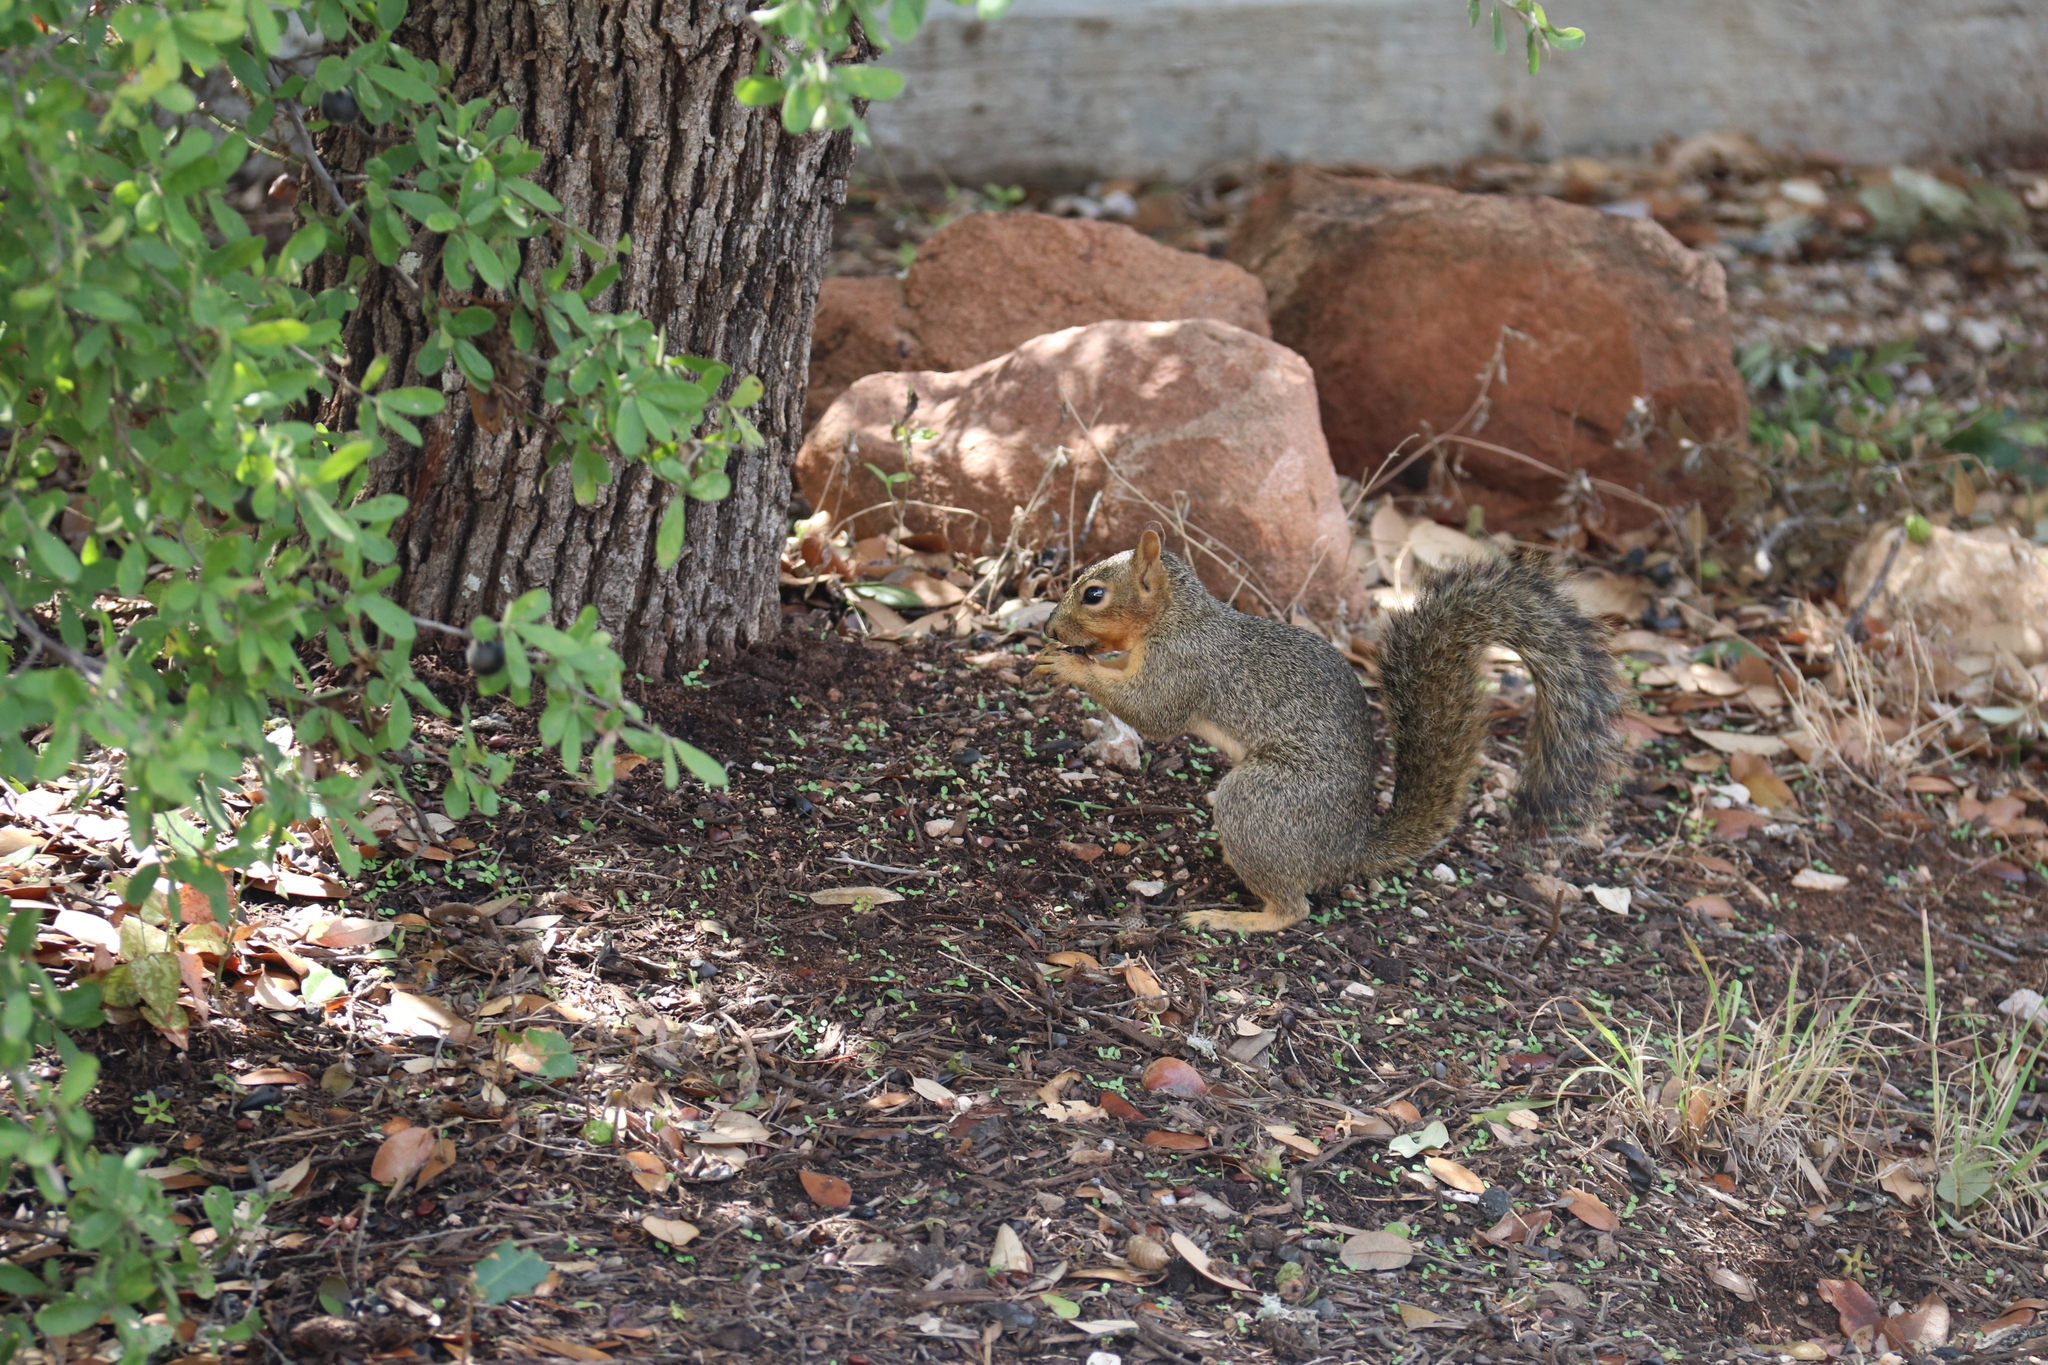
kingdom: Animalia
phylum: Chordata
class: Mammalia
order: Rodentia
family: Sciuridae
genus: Sciurus
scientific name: Sciurus niger
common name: Fox squirrel
